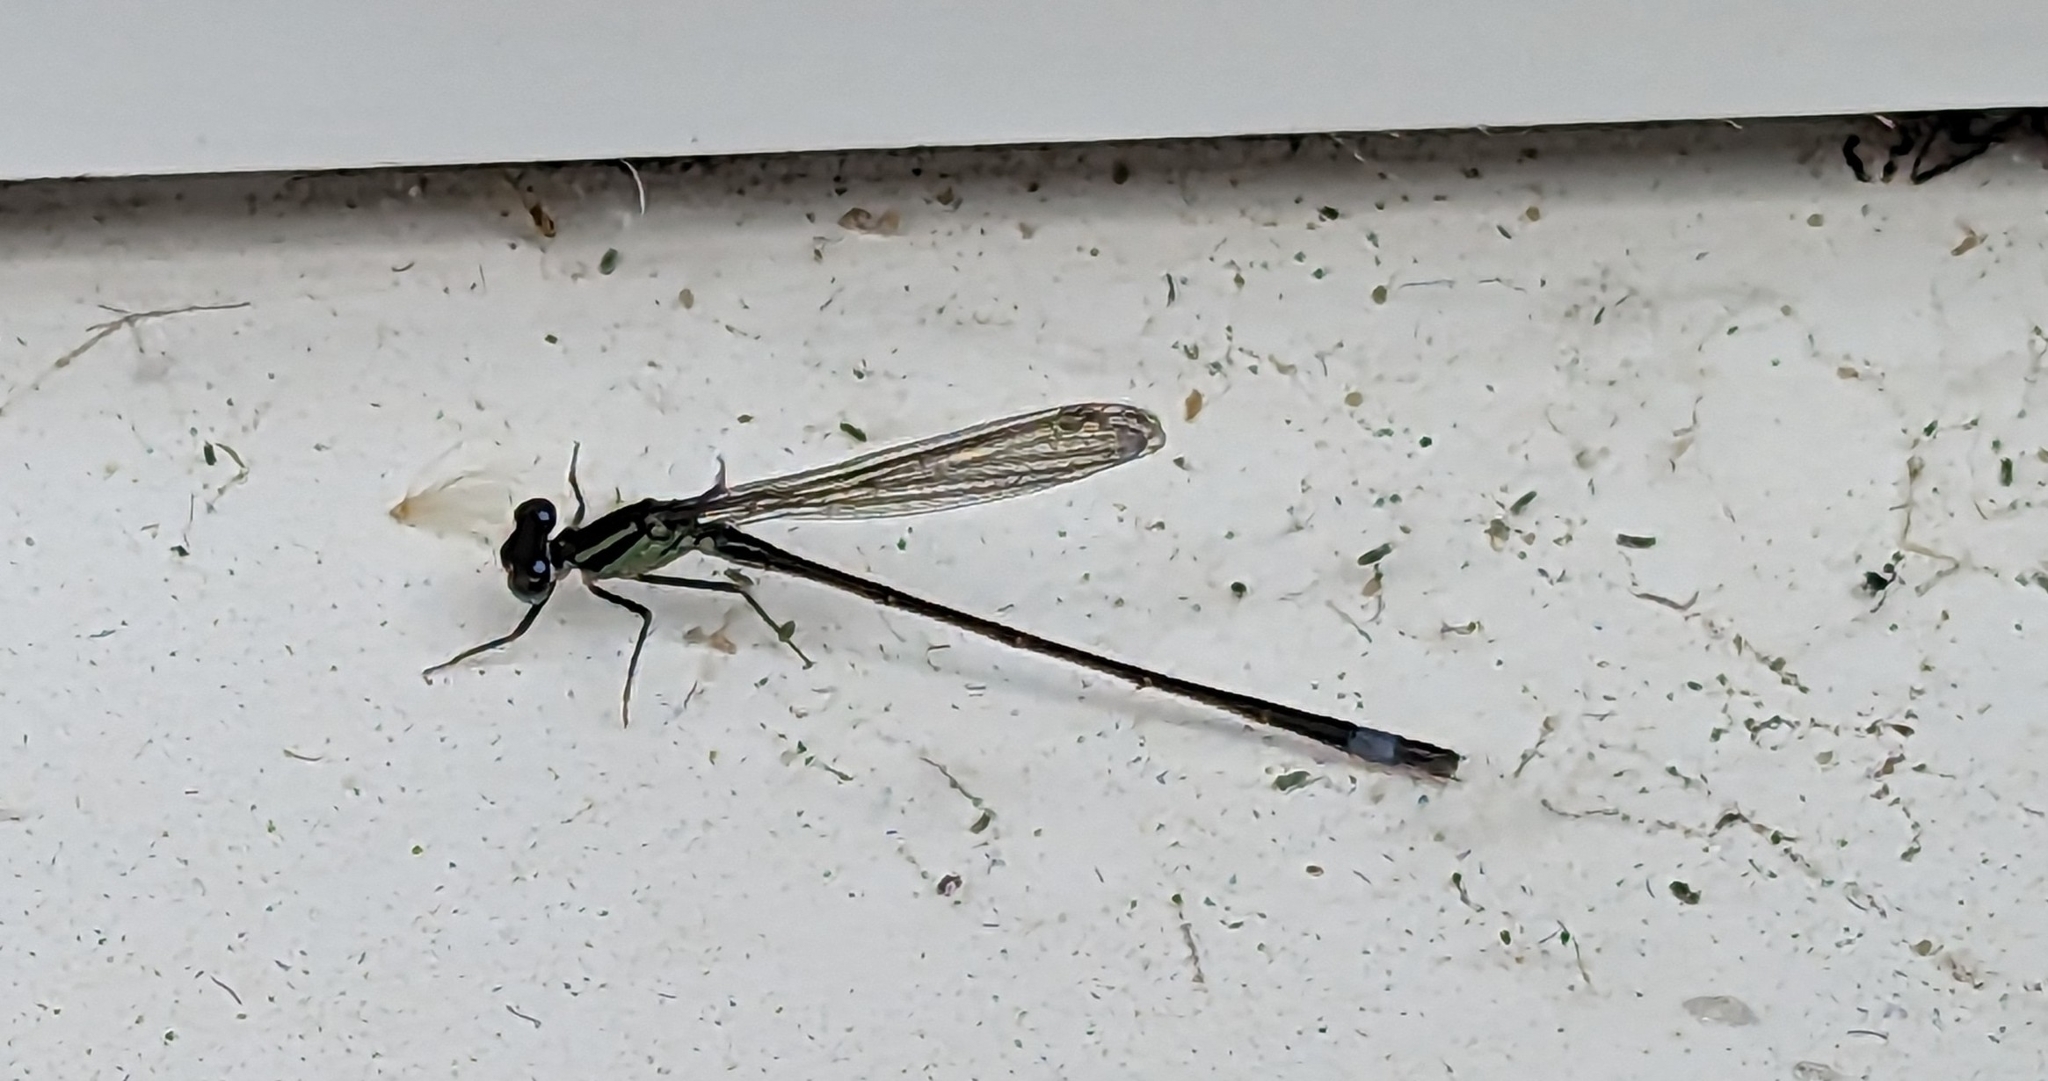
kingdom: Animalia
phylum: Arthropoda
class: Insecta
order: Odonata
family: Coenagrionidae
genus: Ischnura
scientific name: Ischnura elegans
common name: Blue-tailed damselfly
